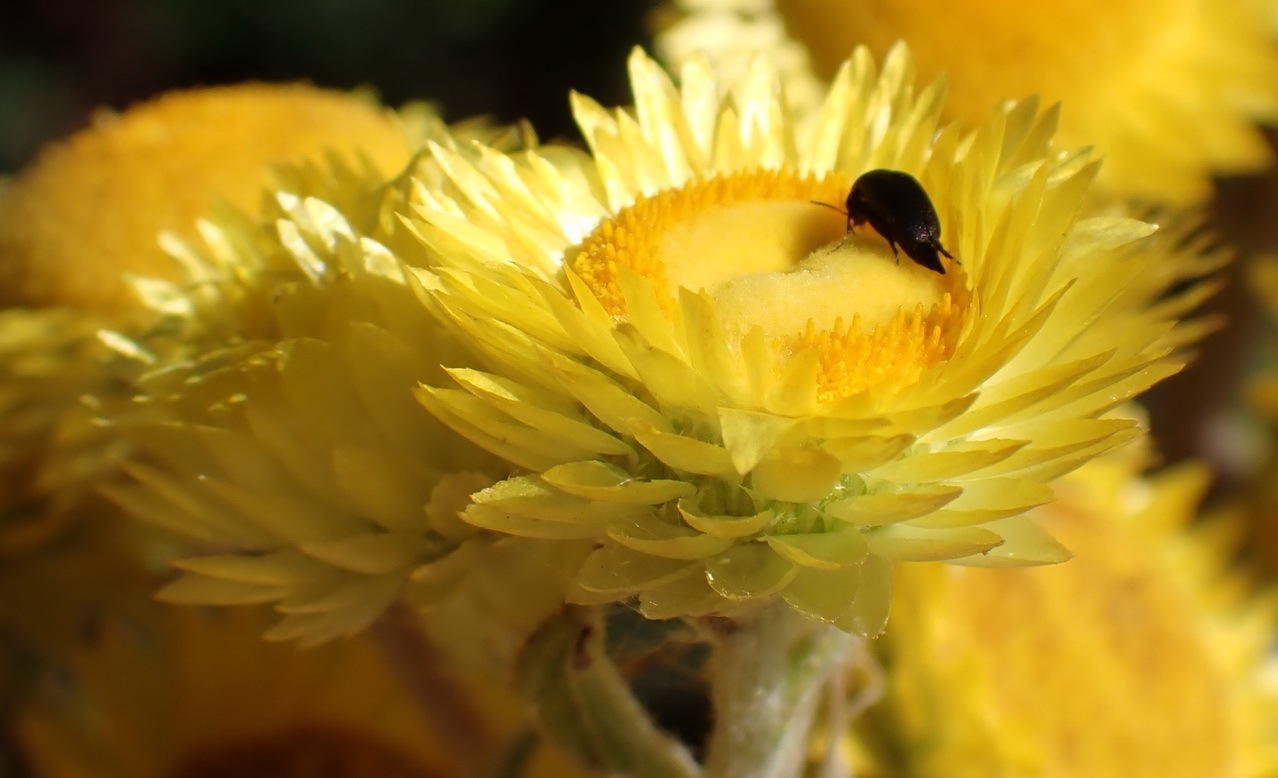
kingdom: Plantae
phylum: Tracheophyta
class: Magnoliopsida
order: Asterales
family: Asteraceae
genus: Helichrysum
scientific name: Helichrysum foetidum
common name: Stinking everlasting
